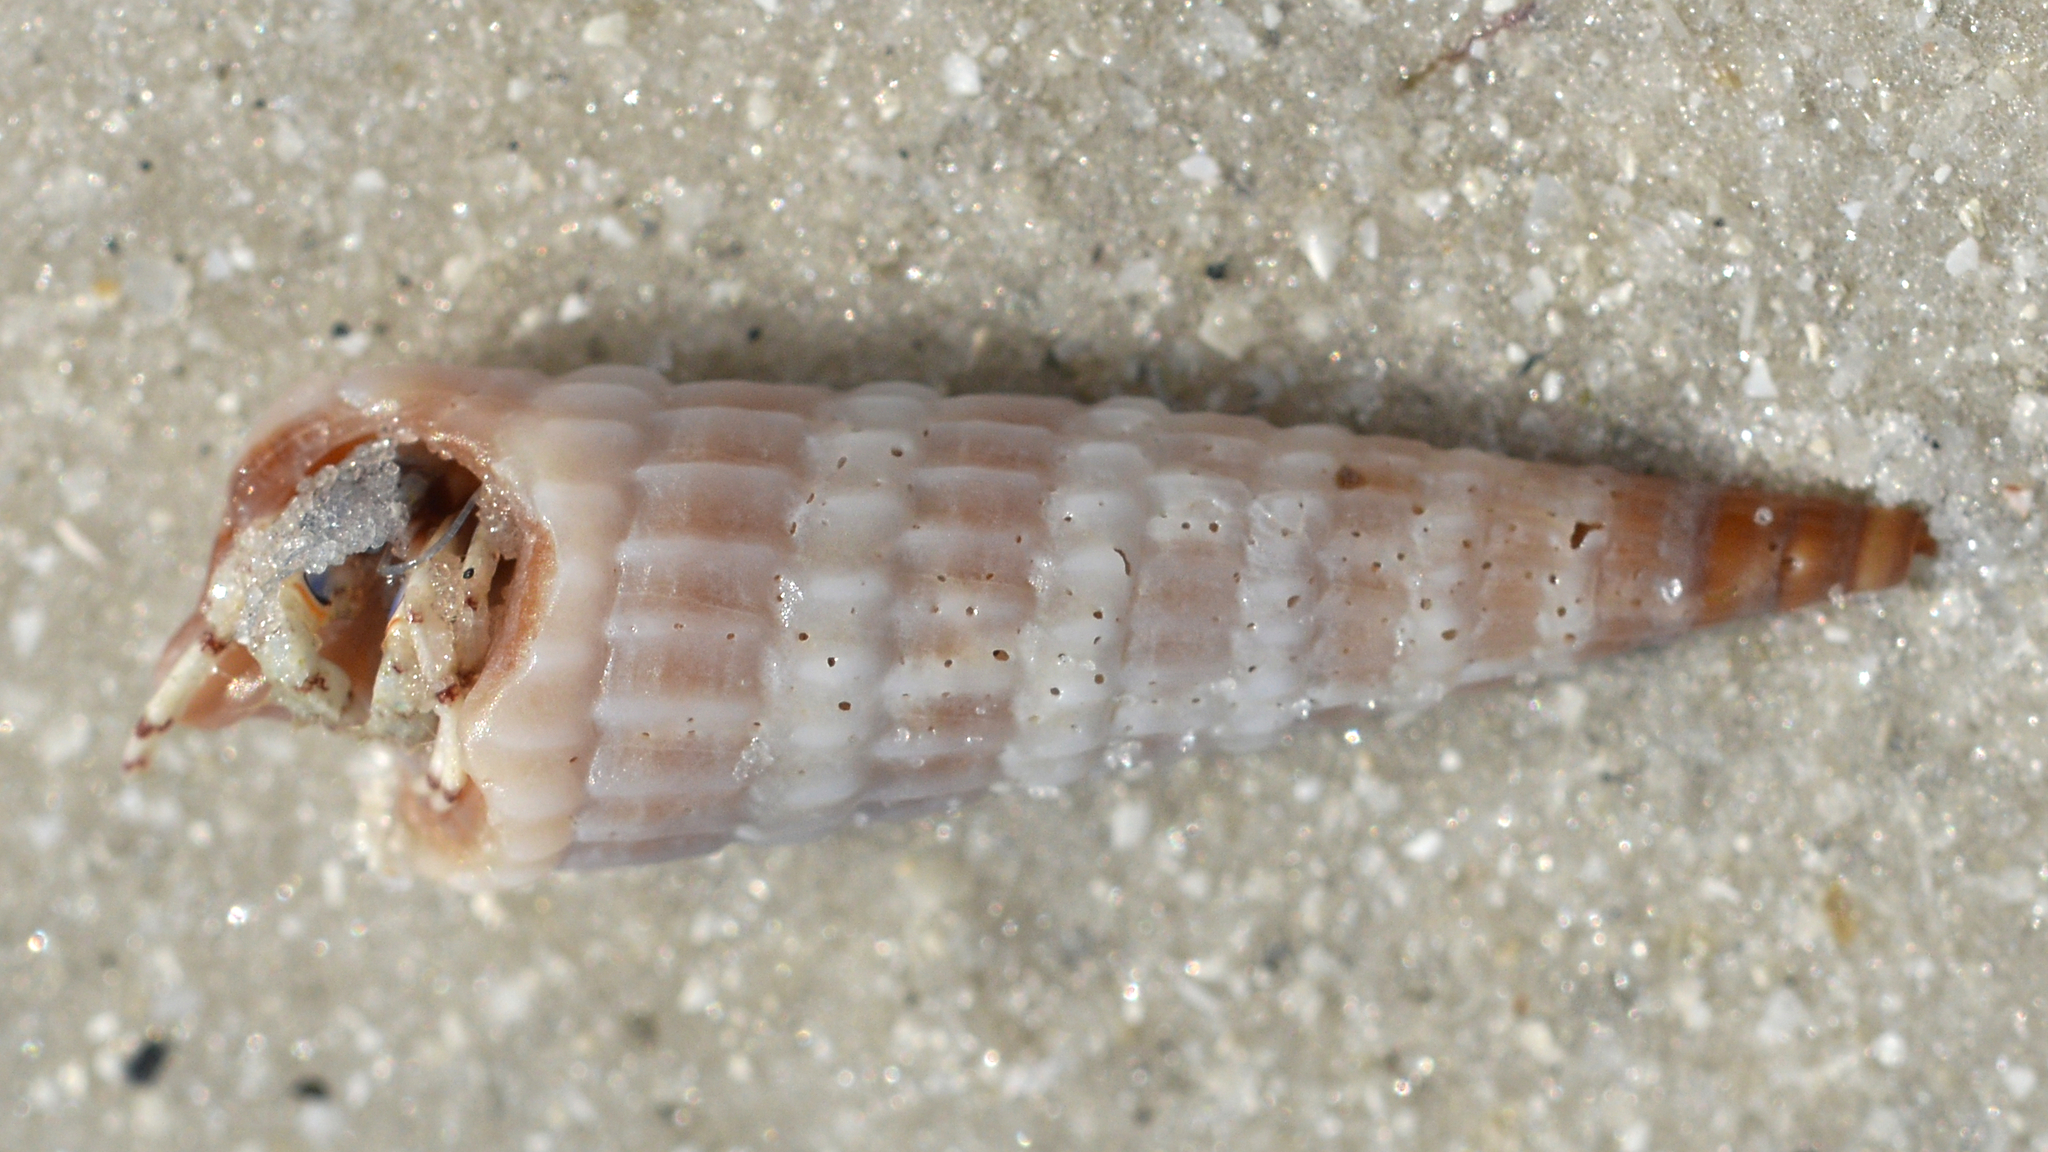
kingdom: Animalia
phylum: Mollusca
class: Gastropoda
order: Neogastropoda
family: Terebridae
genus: Neoterebra
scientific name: Neoterebra dislocata
